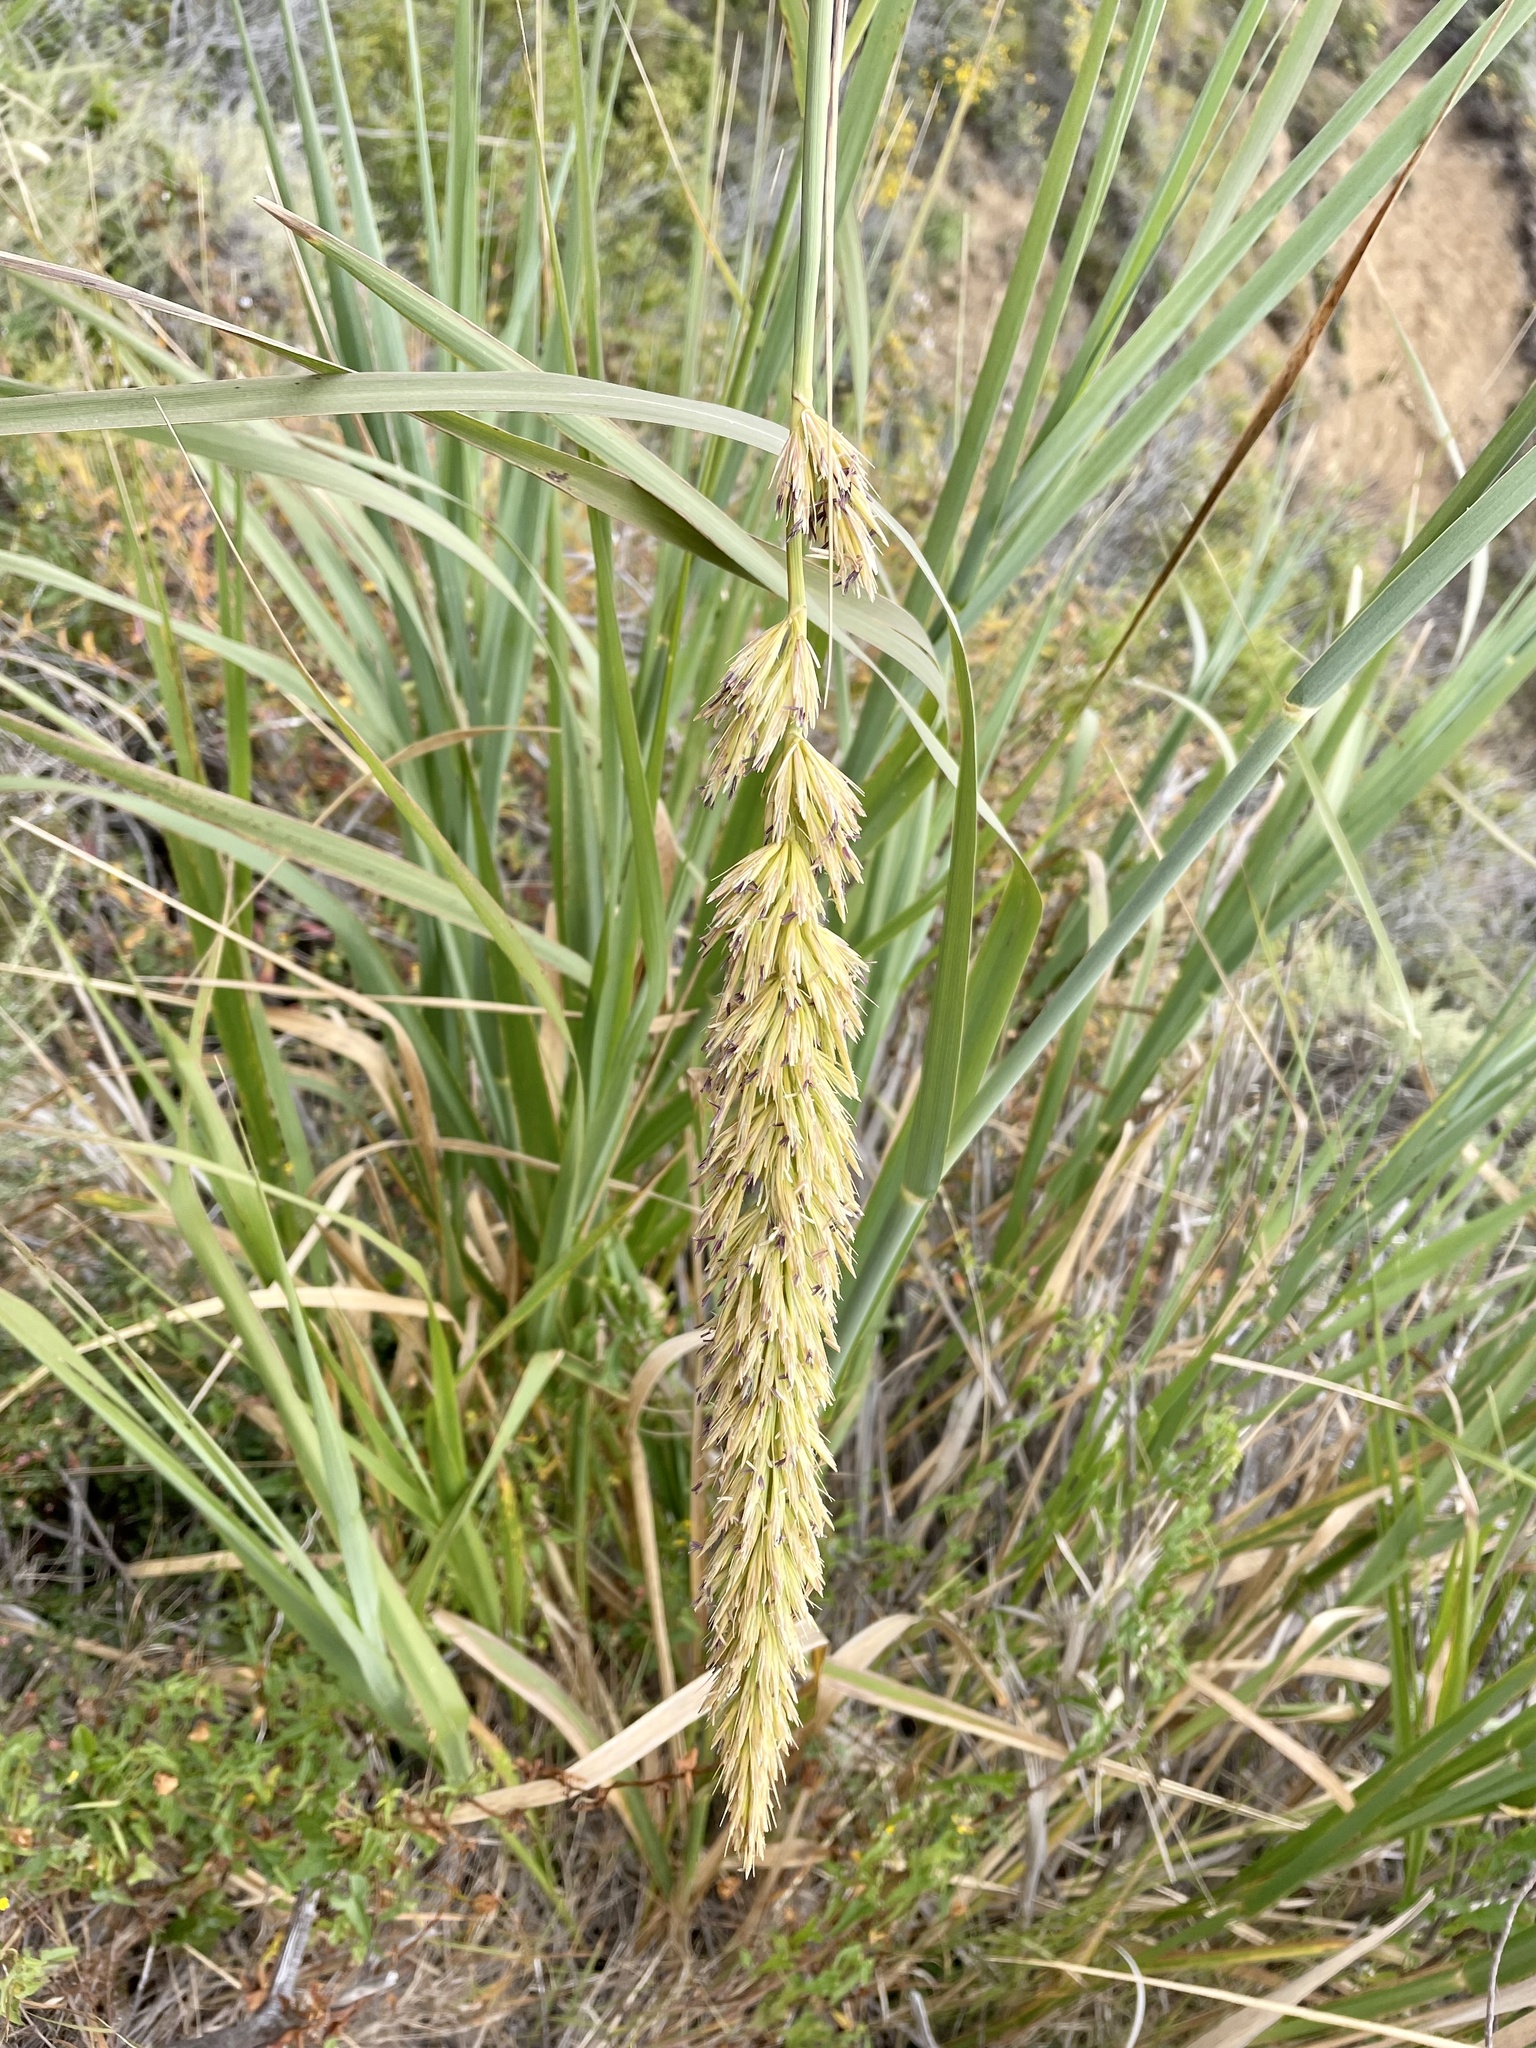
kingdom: Plantae
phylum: Tracheophyta
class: Liliopsida
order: Poales
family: Poaceae
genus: Leymus
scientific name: Leymus condensatus
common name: Giant wild rye
